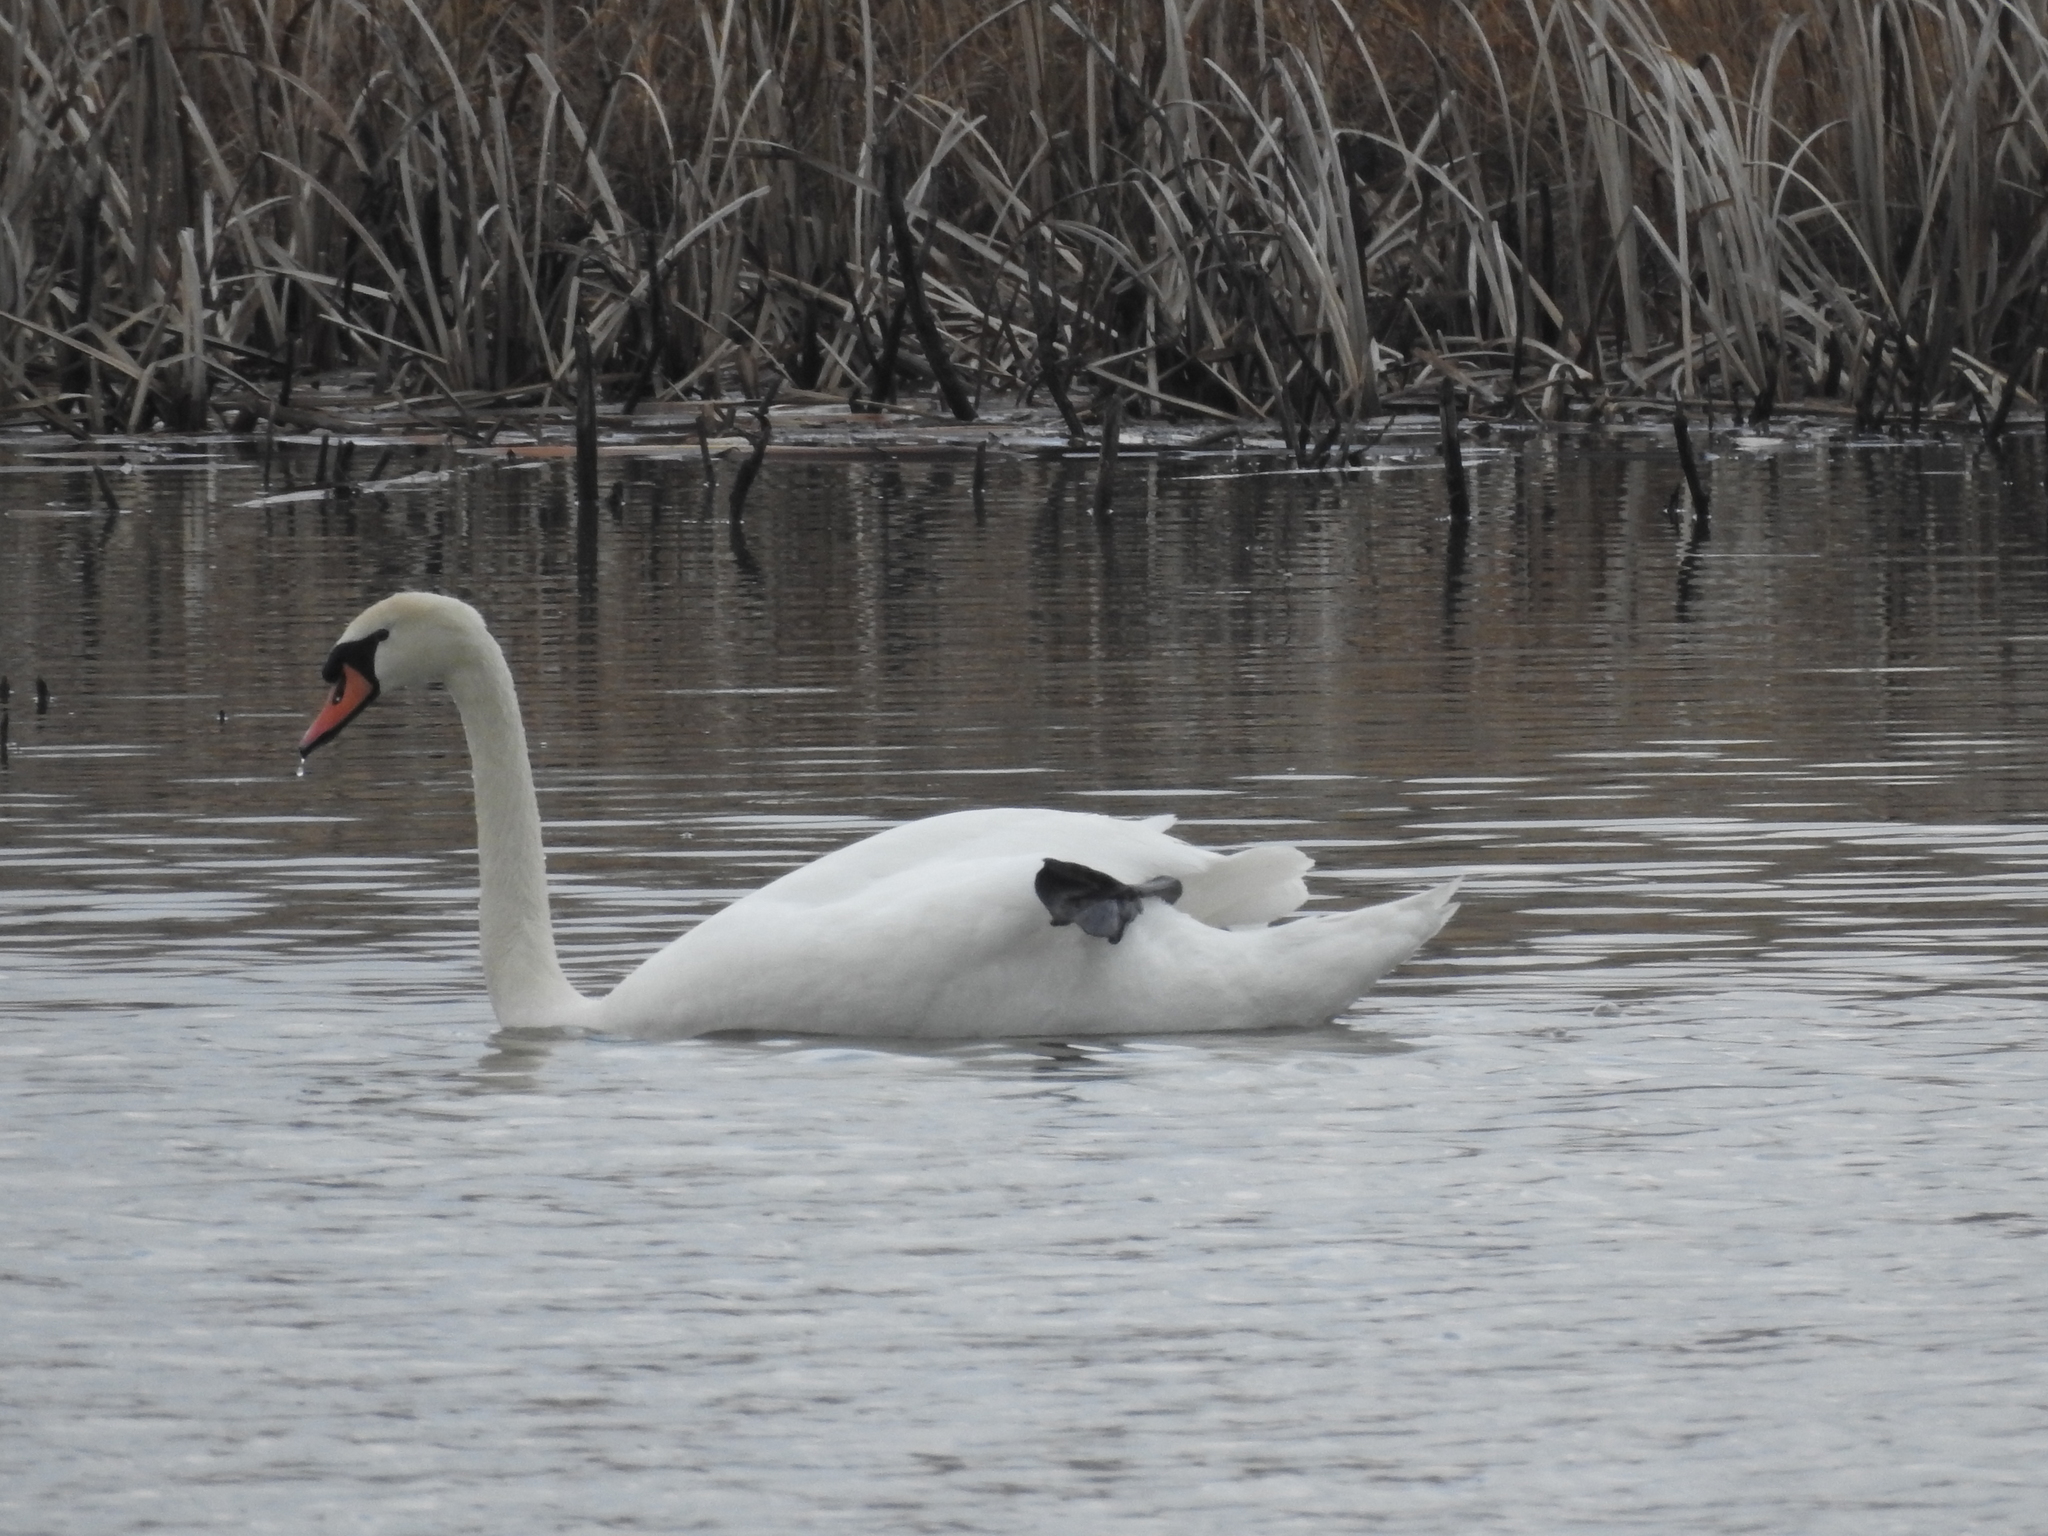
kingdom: Animalia
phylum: Chordata
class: Aves
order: Anseriformes
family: Anatidae
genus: Cygnus
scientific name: Cygnus olor
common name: Mute swan
